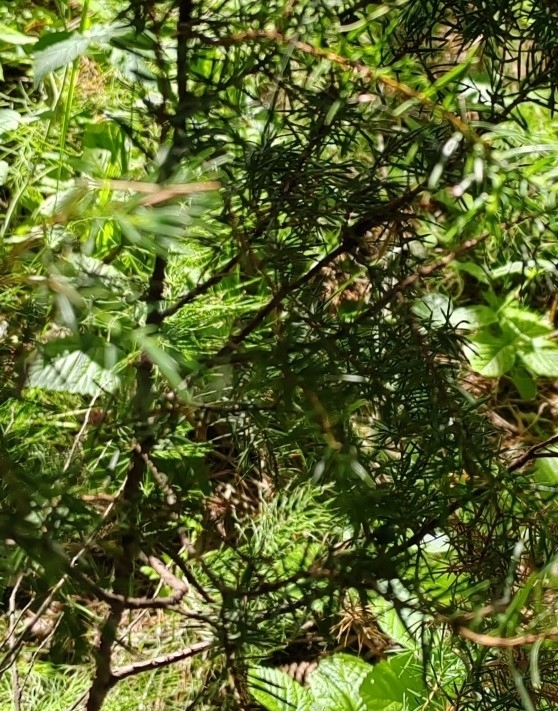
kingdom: Plantae
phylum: Tracheophyta
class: Pinopsida
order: Pinales
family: Cupressaceae
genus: Juniperus
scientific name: Juniperus communis
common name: Common juniper
